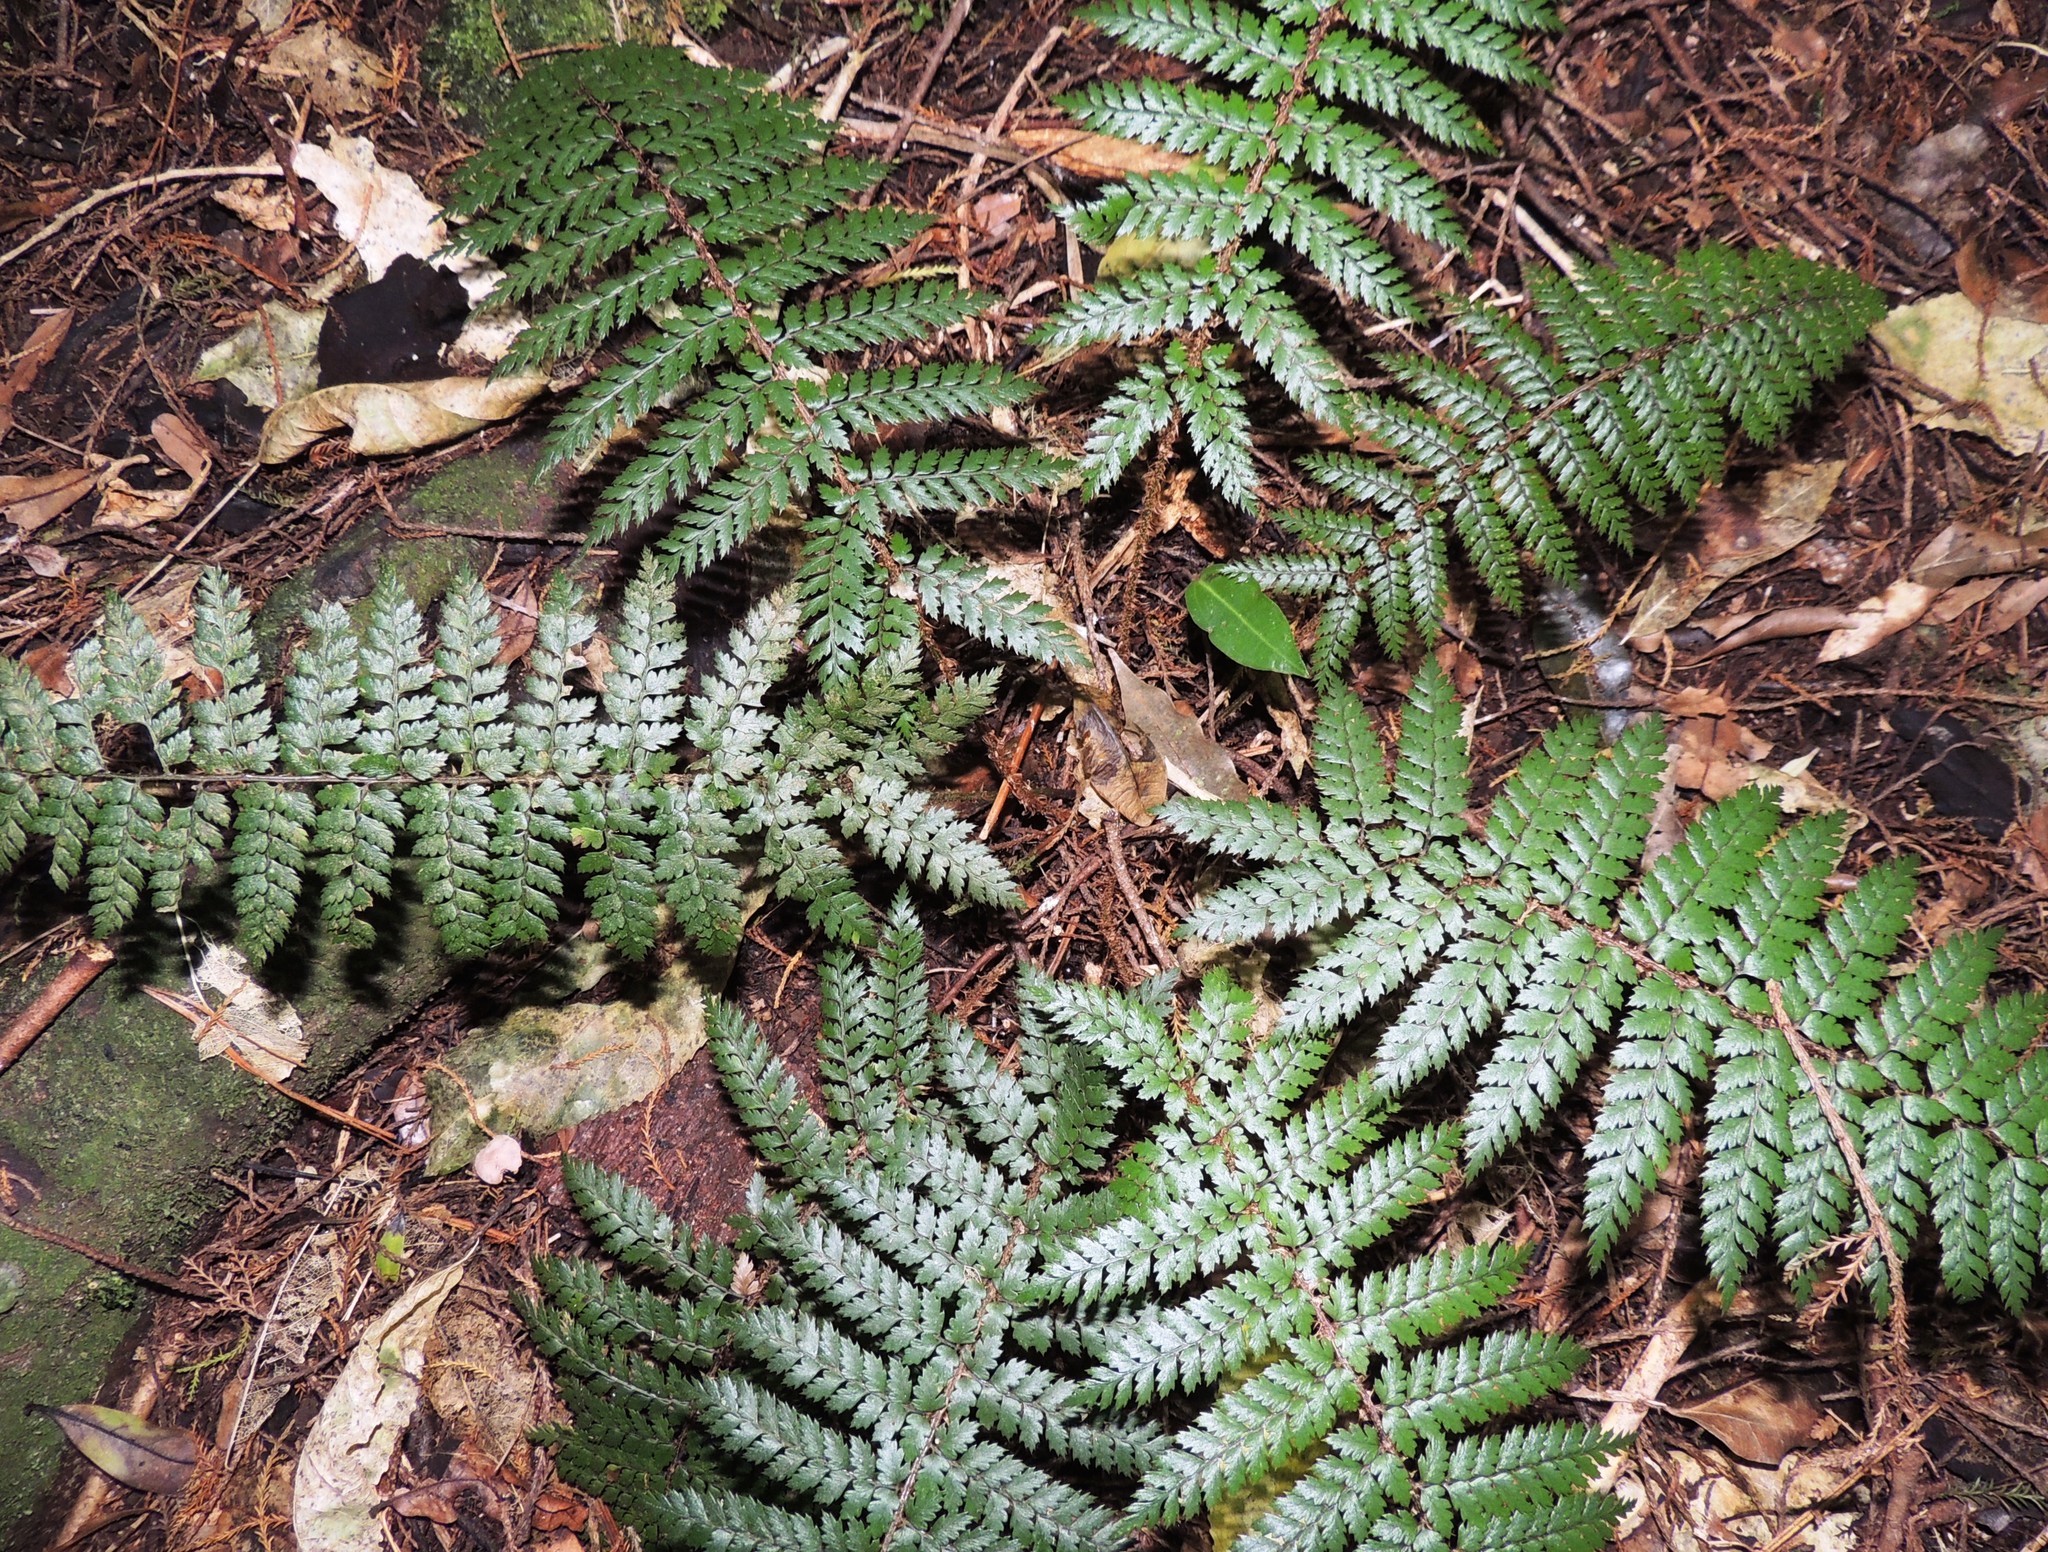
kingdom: Plantae
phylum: Tracheophyta
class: Polypodiopsida
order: Polypodiales
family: Dryopteridaceae
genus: Polystichum
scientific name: Polystichum vestitum
